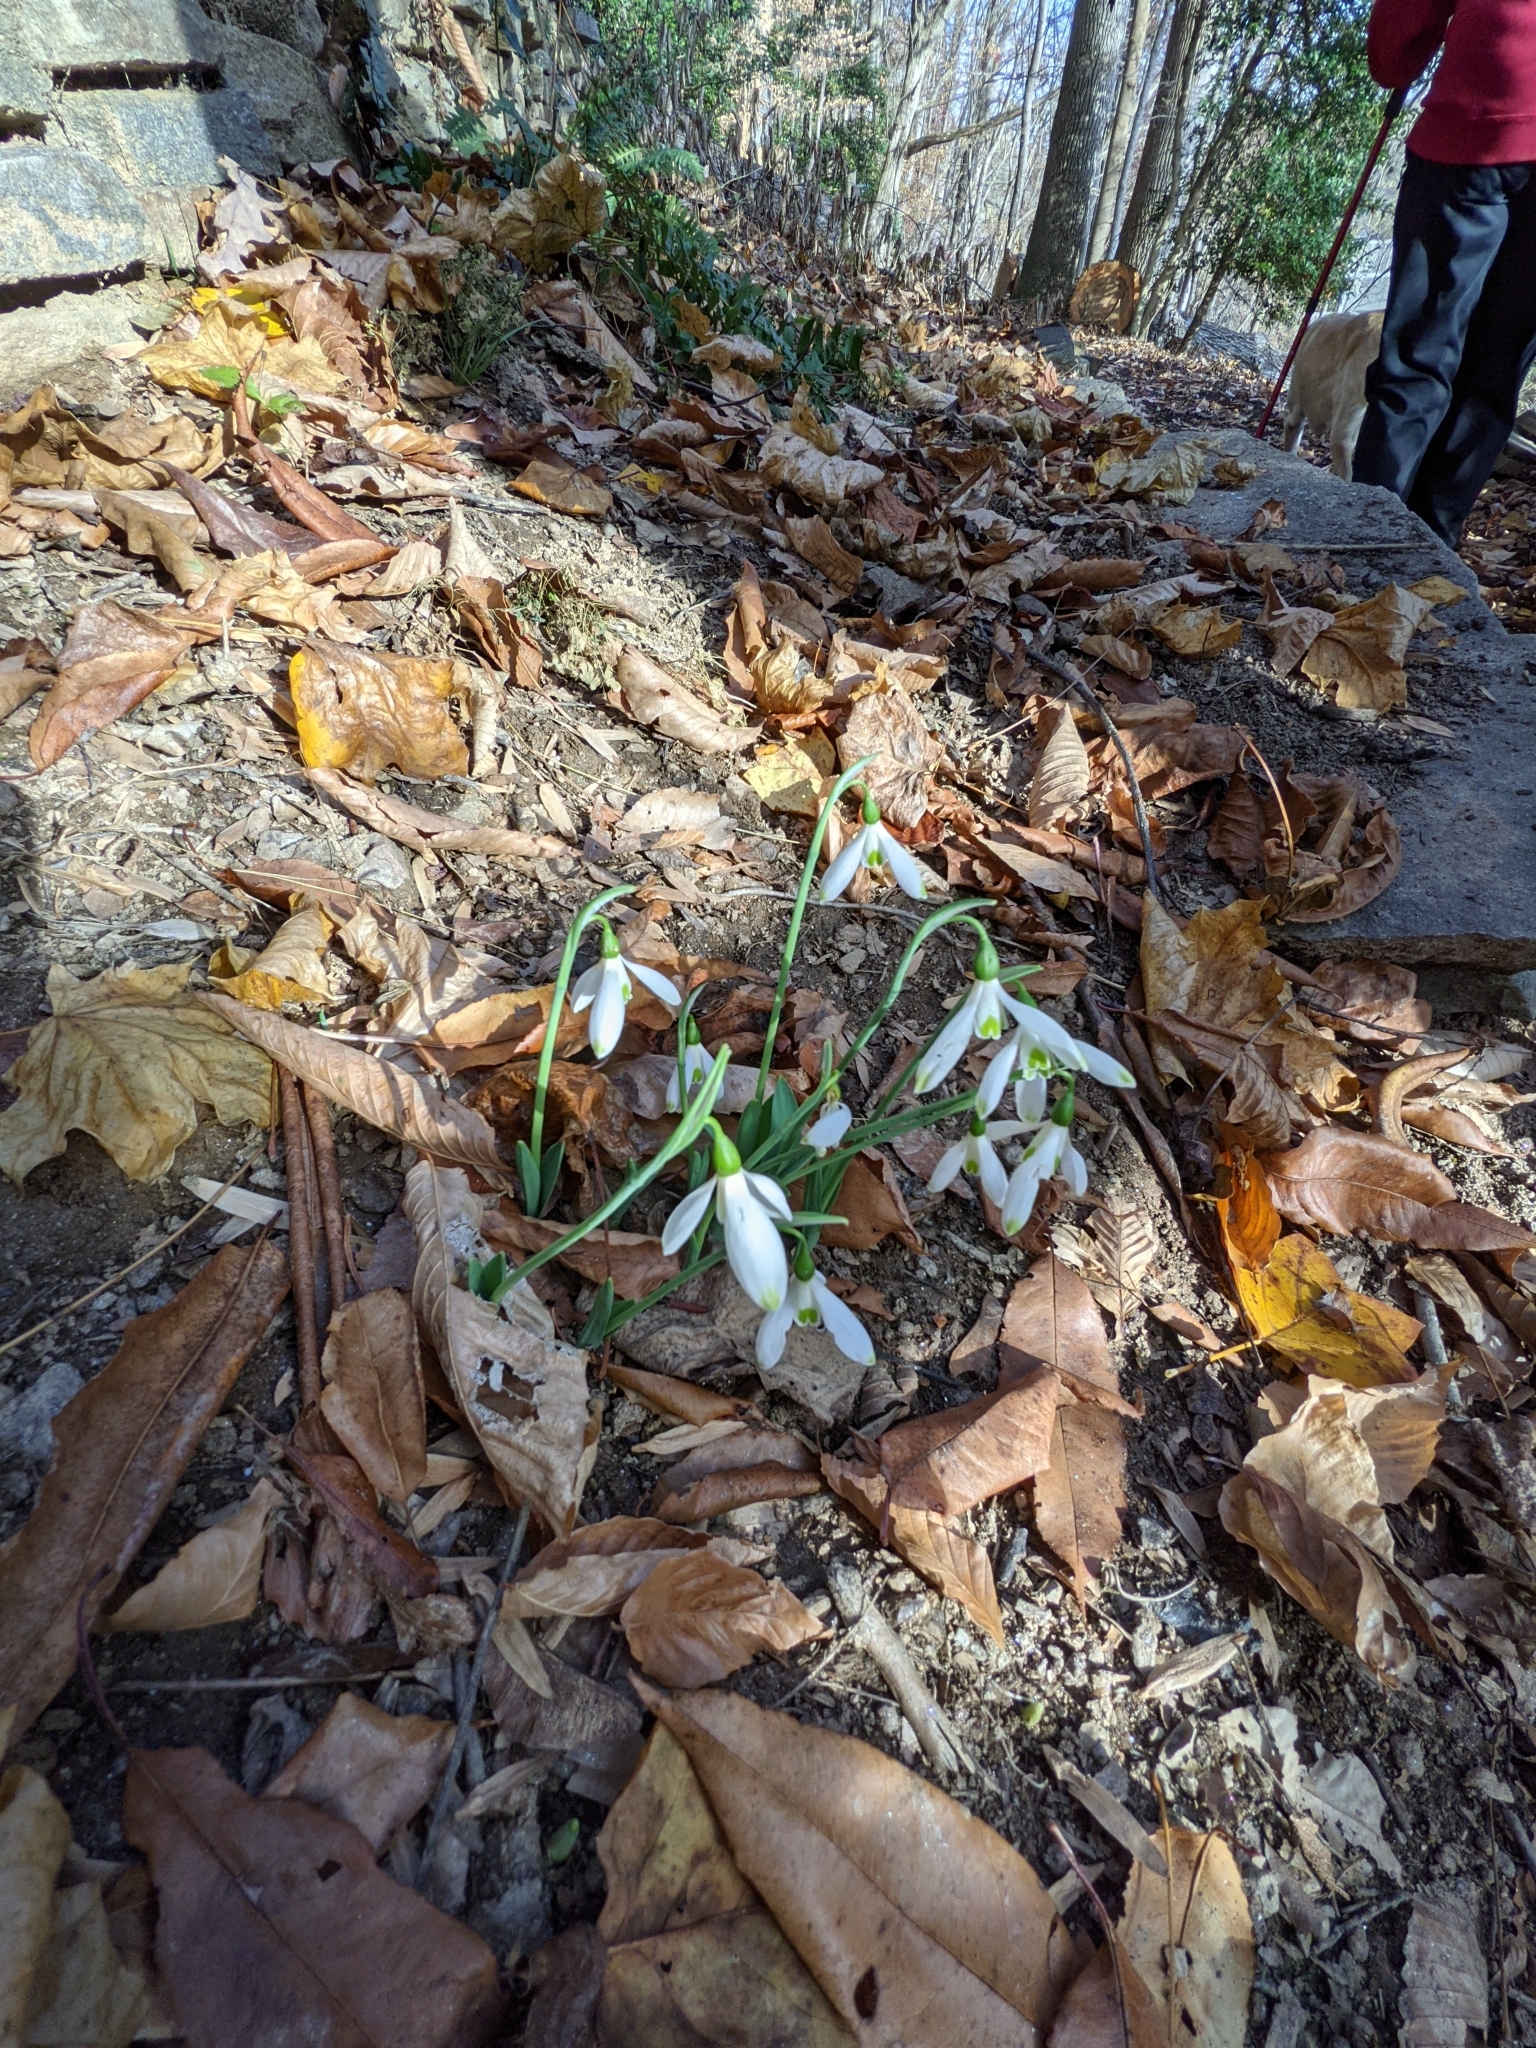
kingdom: Plantae
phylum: Tracheophyta
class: Liliopsida
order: Asparagales
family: Amaryllidaceae
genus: Galanthus
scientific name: Galanthus elwesii
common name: Greater snowdrop
